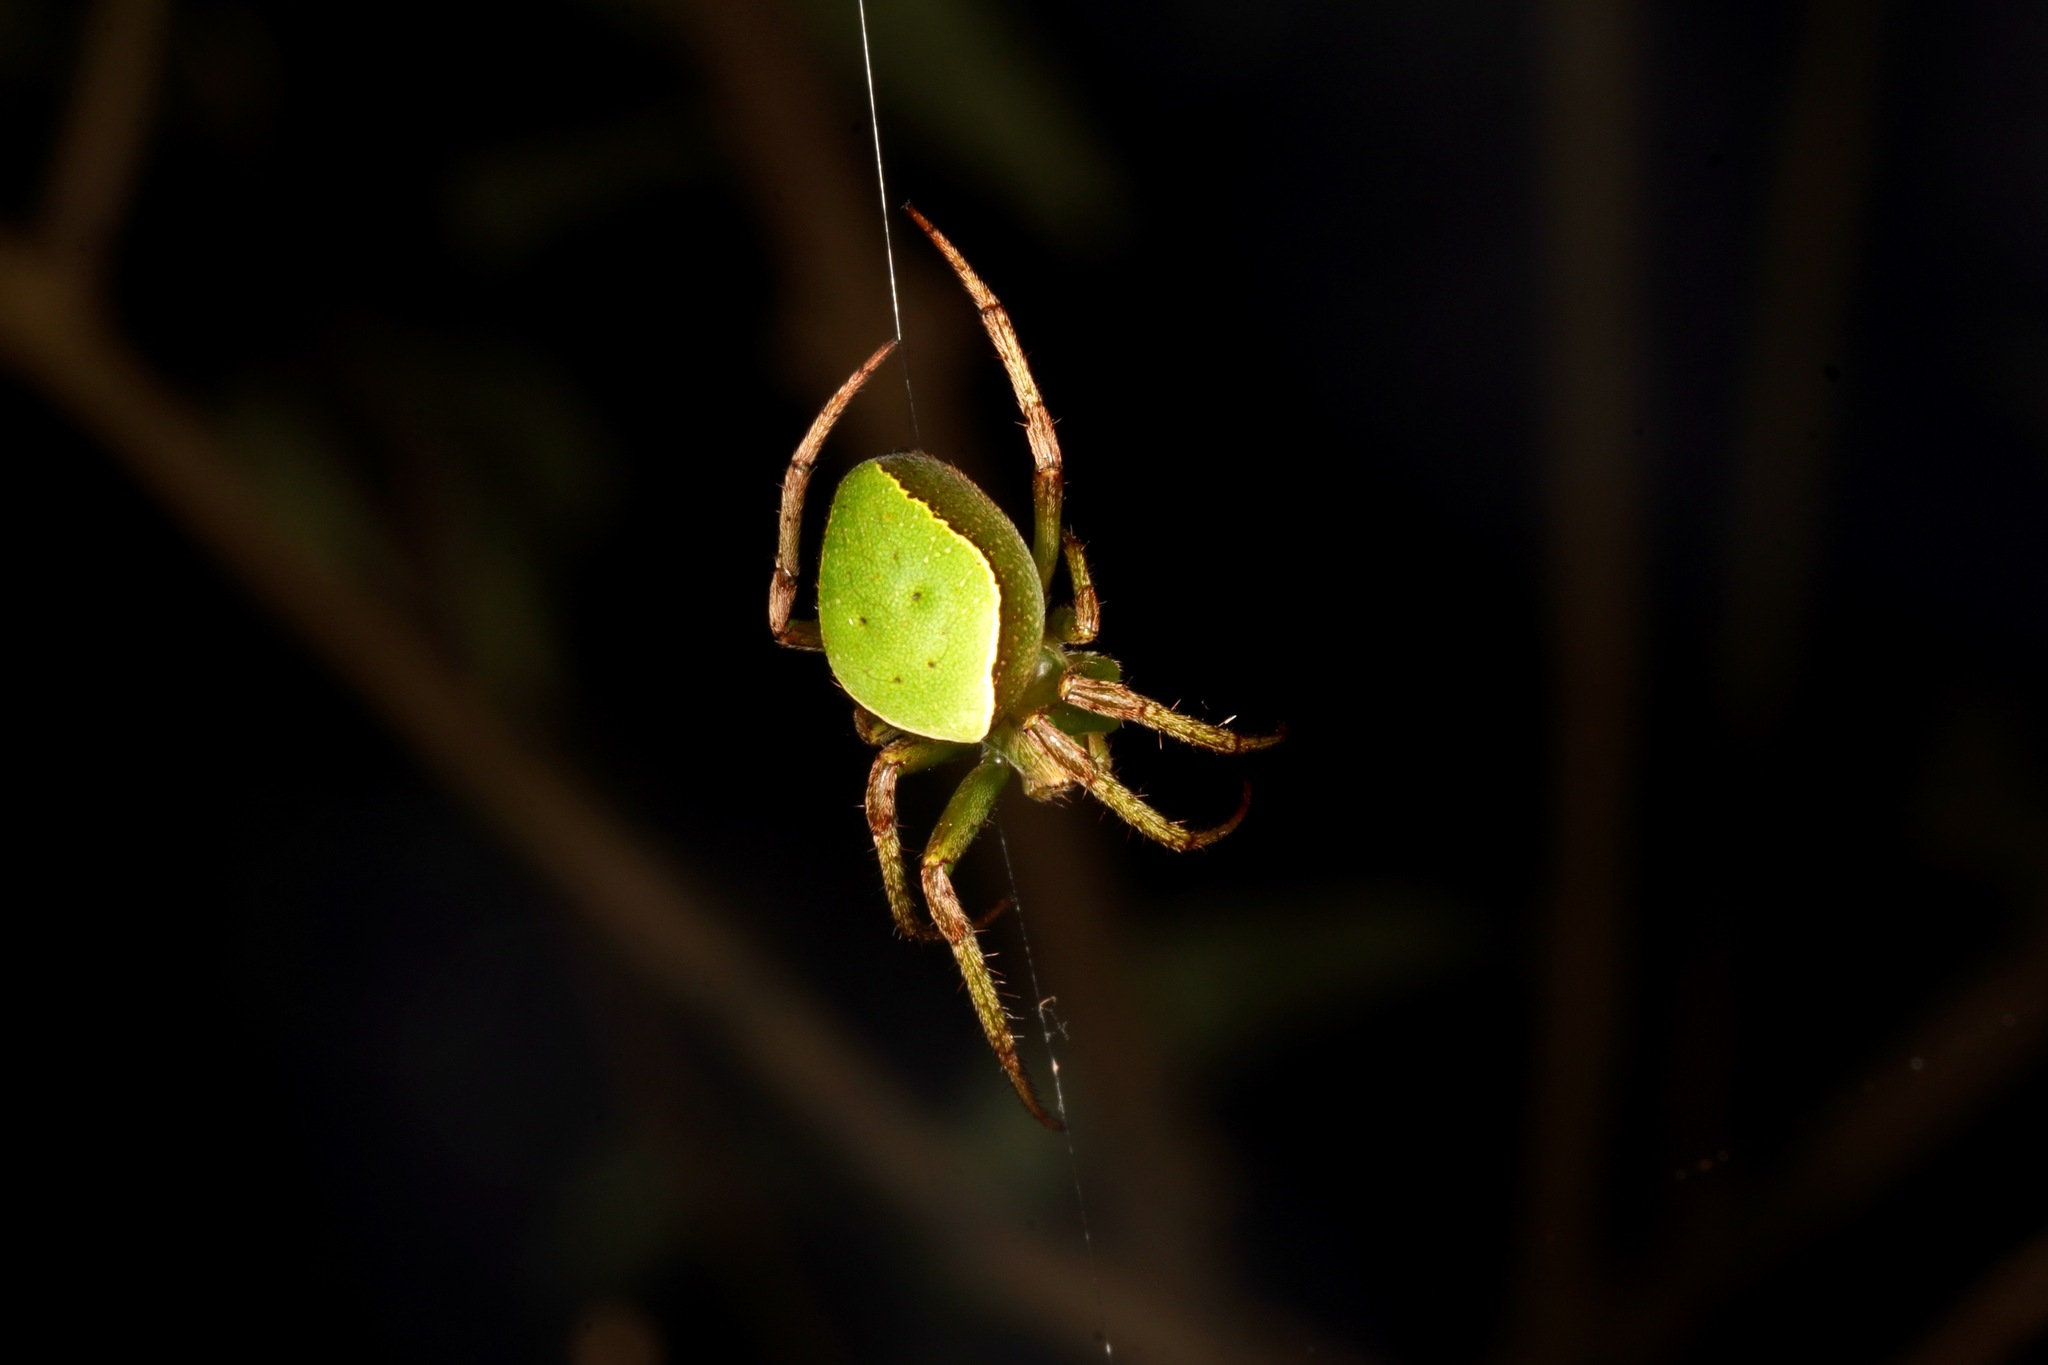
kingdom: Animalia
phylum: Arthropoda
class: Arachnida
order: Araneae
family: Araneidae
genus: Colaranea
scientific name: Colaranea viriditas
